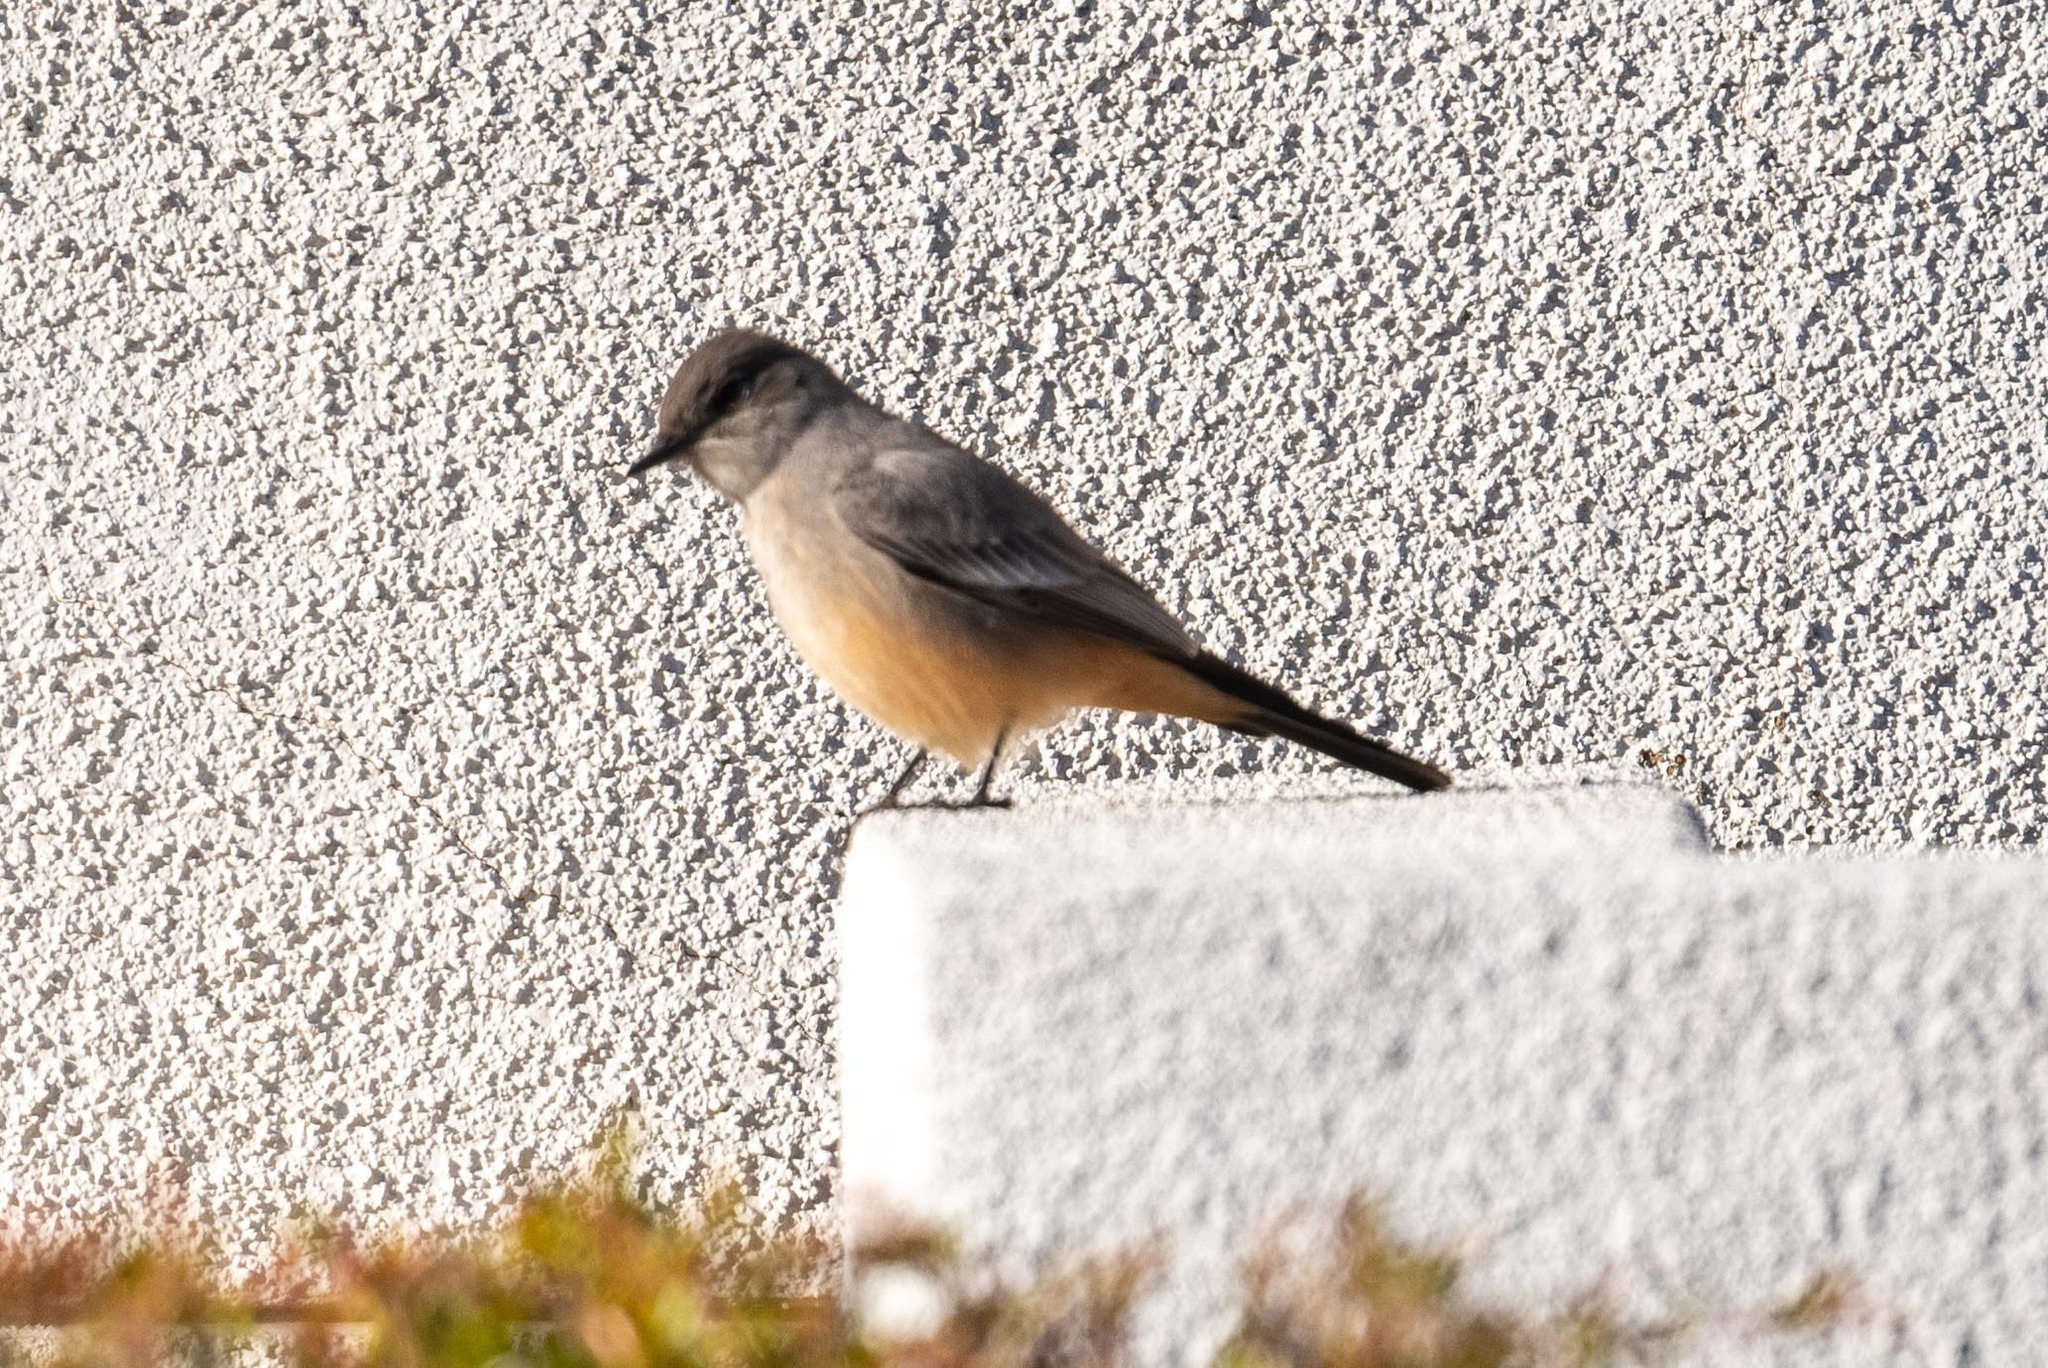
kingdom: Animalia
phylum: Chordata
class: Aves
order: Passeriformes
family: Tyrannidae
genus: Sayornis
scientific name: Sayornis saya
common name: Say's phoebe
